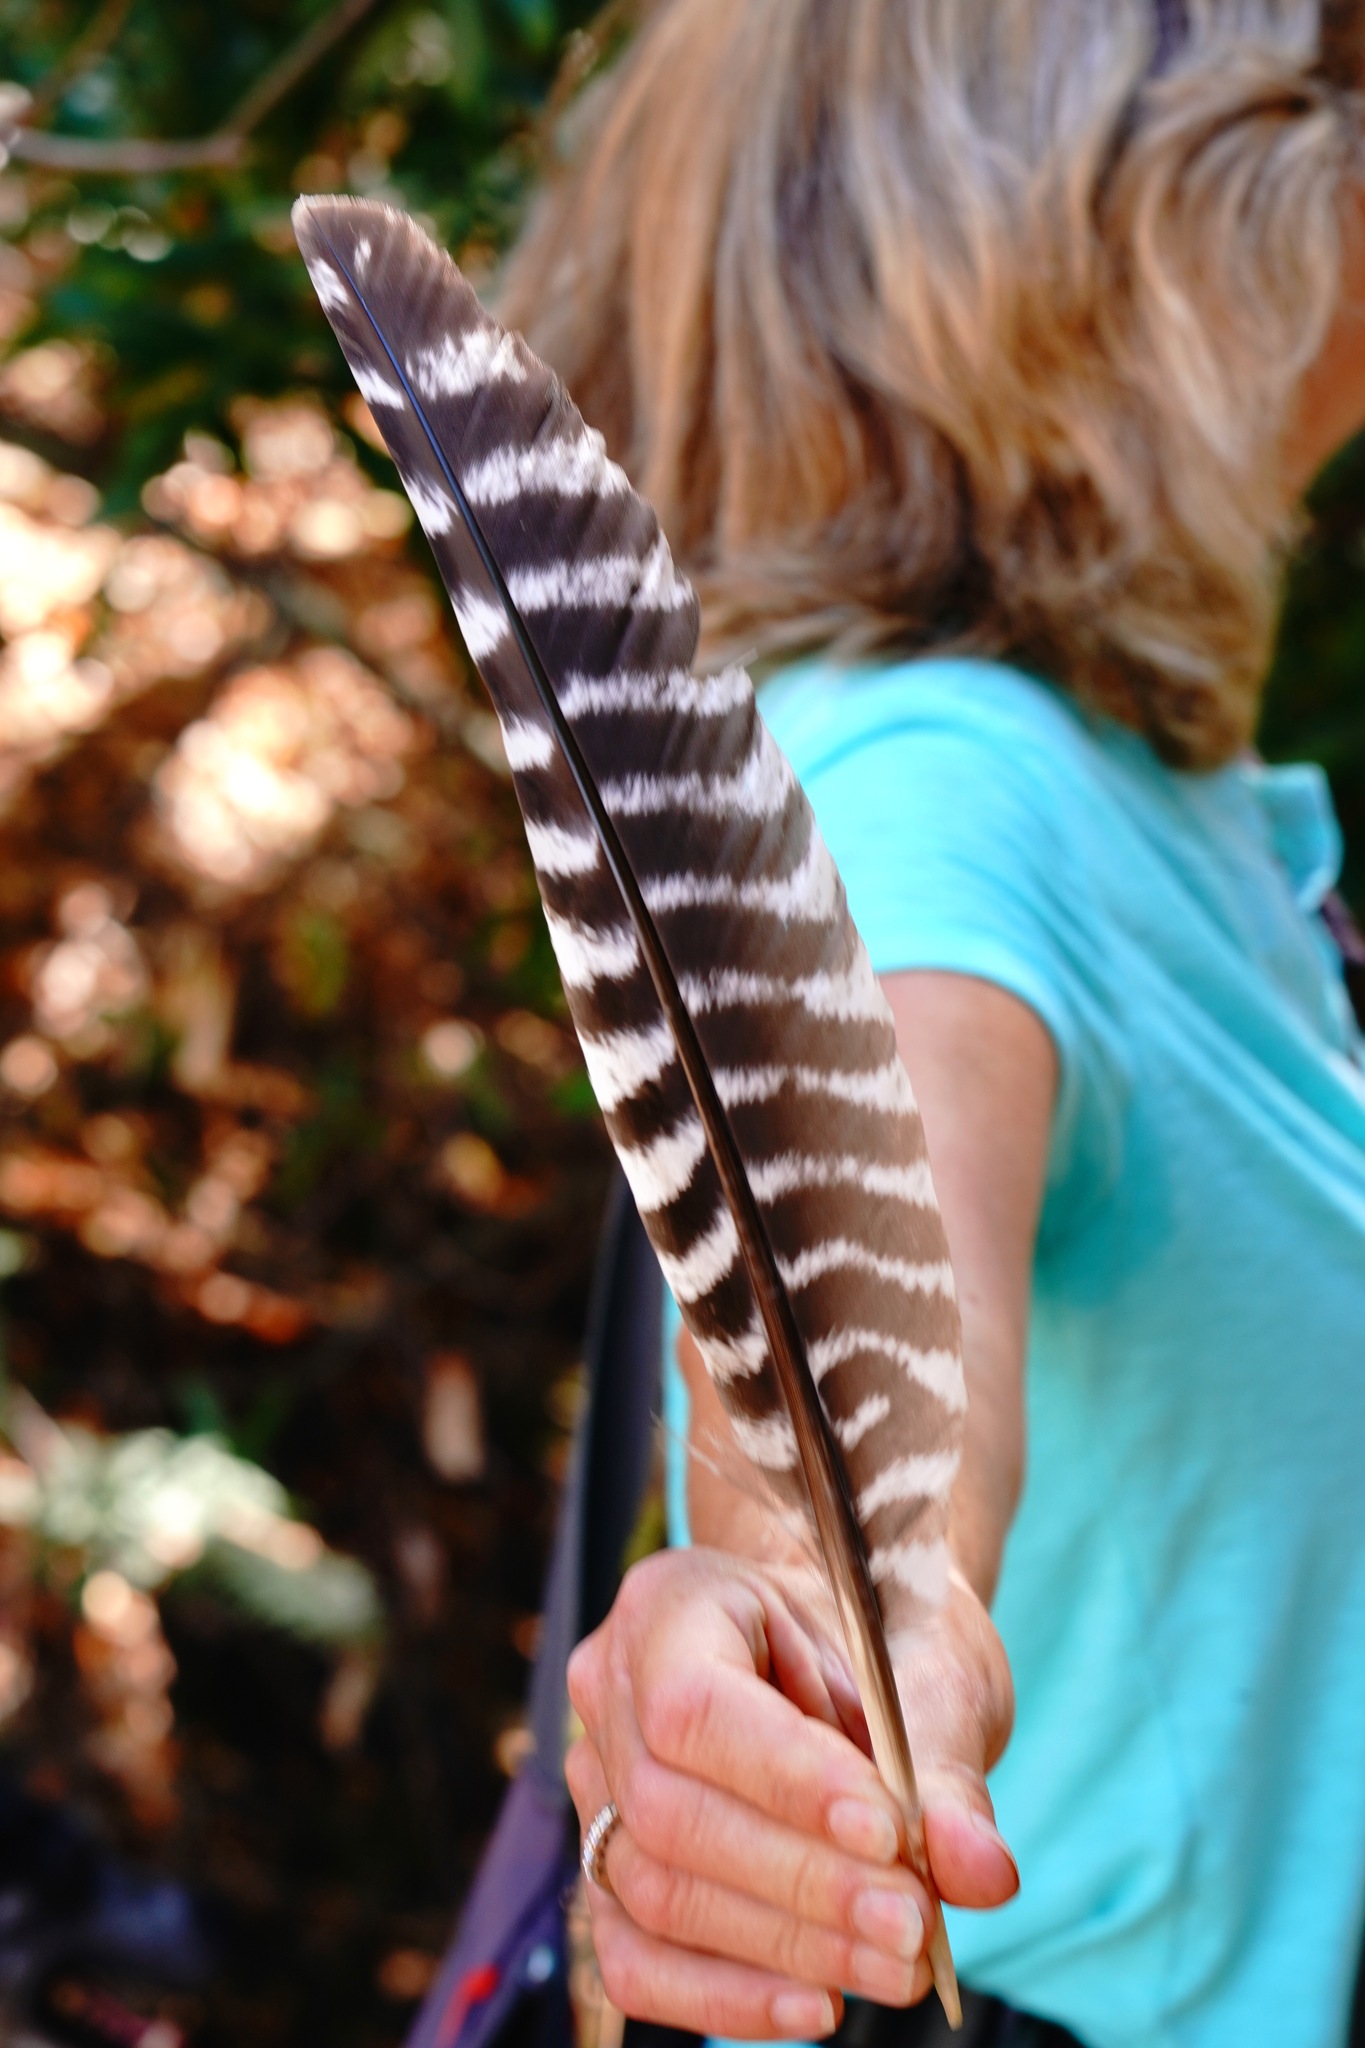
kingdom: Animalia
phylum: Chordata
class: Aves
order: Galliformes
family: Phasianidae
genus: Meleagris
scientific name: Meleagris gallopavo
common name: Wild turkey
